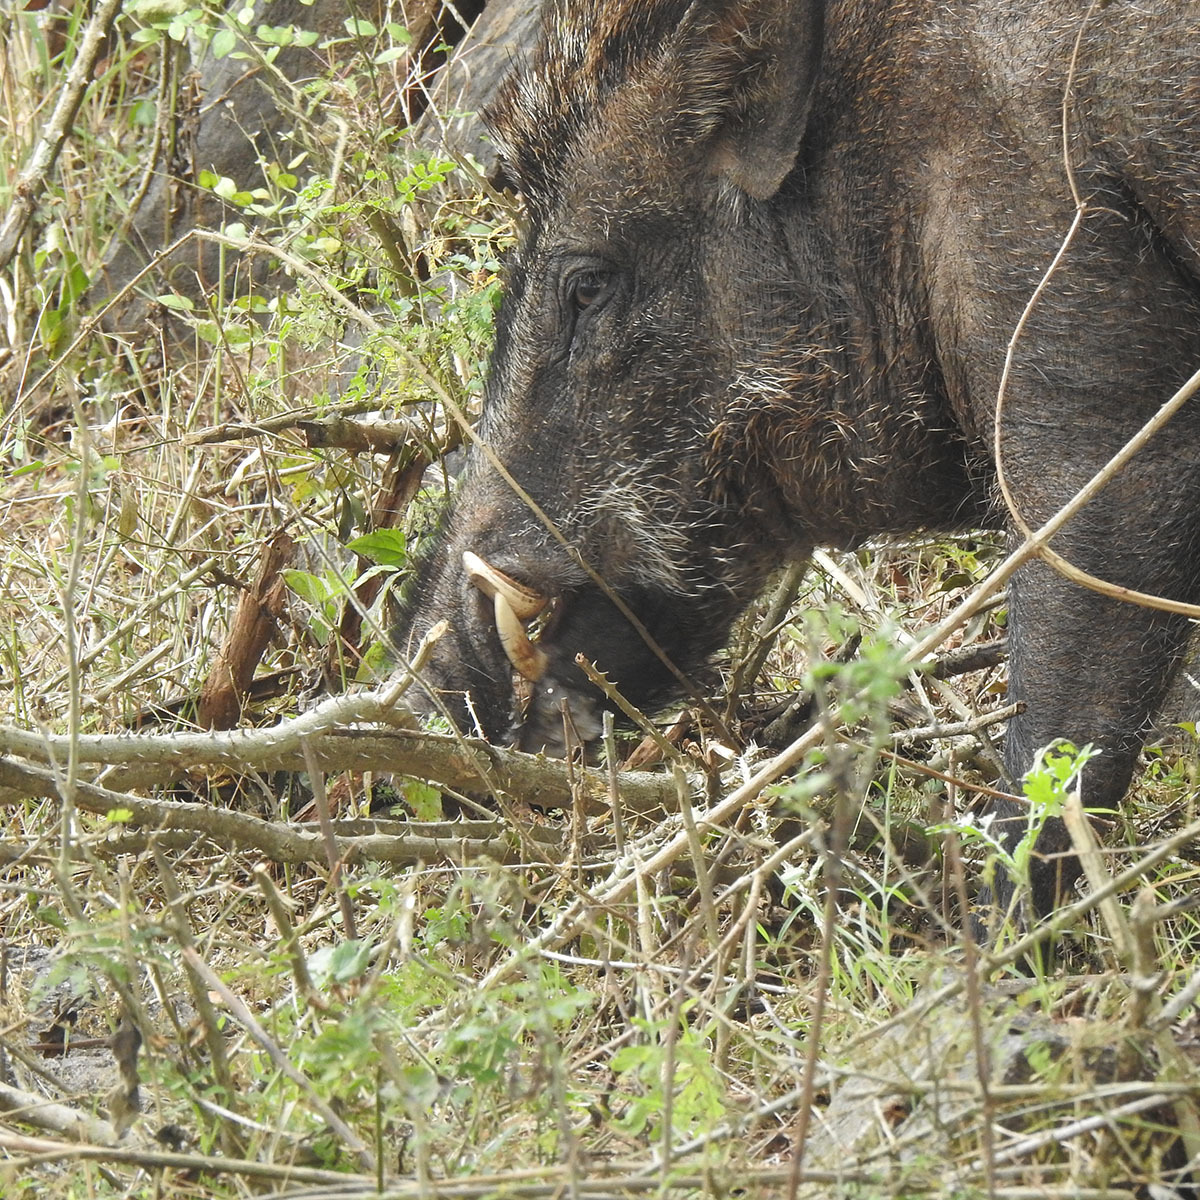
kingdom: Animalia
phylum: Chordata
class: Mammalia
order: Artiodactyla
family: Suidae
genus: Sus
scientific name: Sus scrofa
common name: Wild boar
